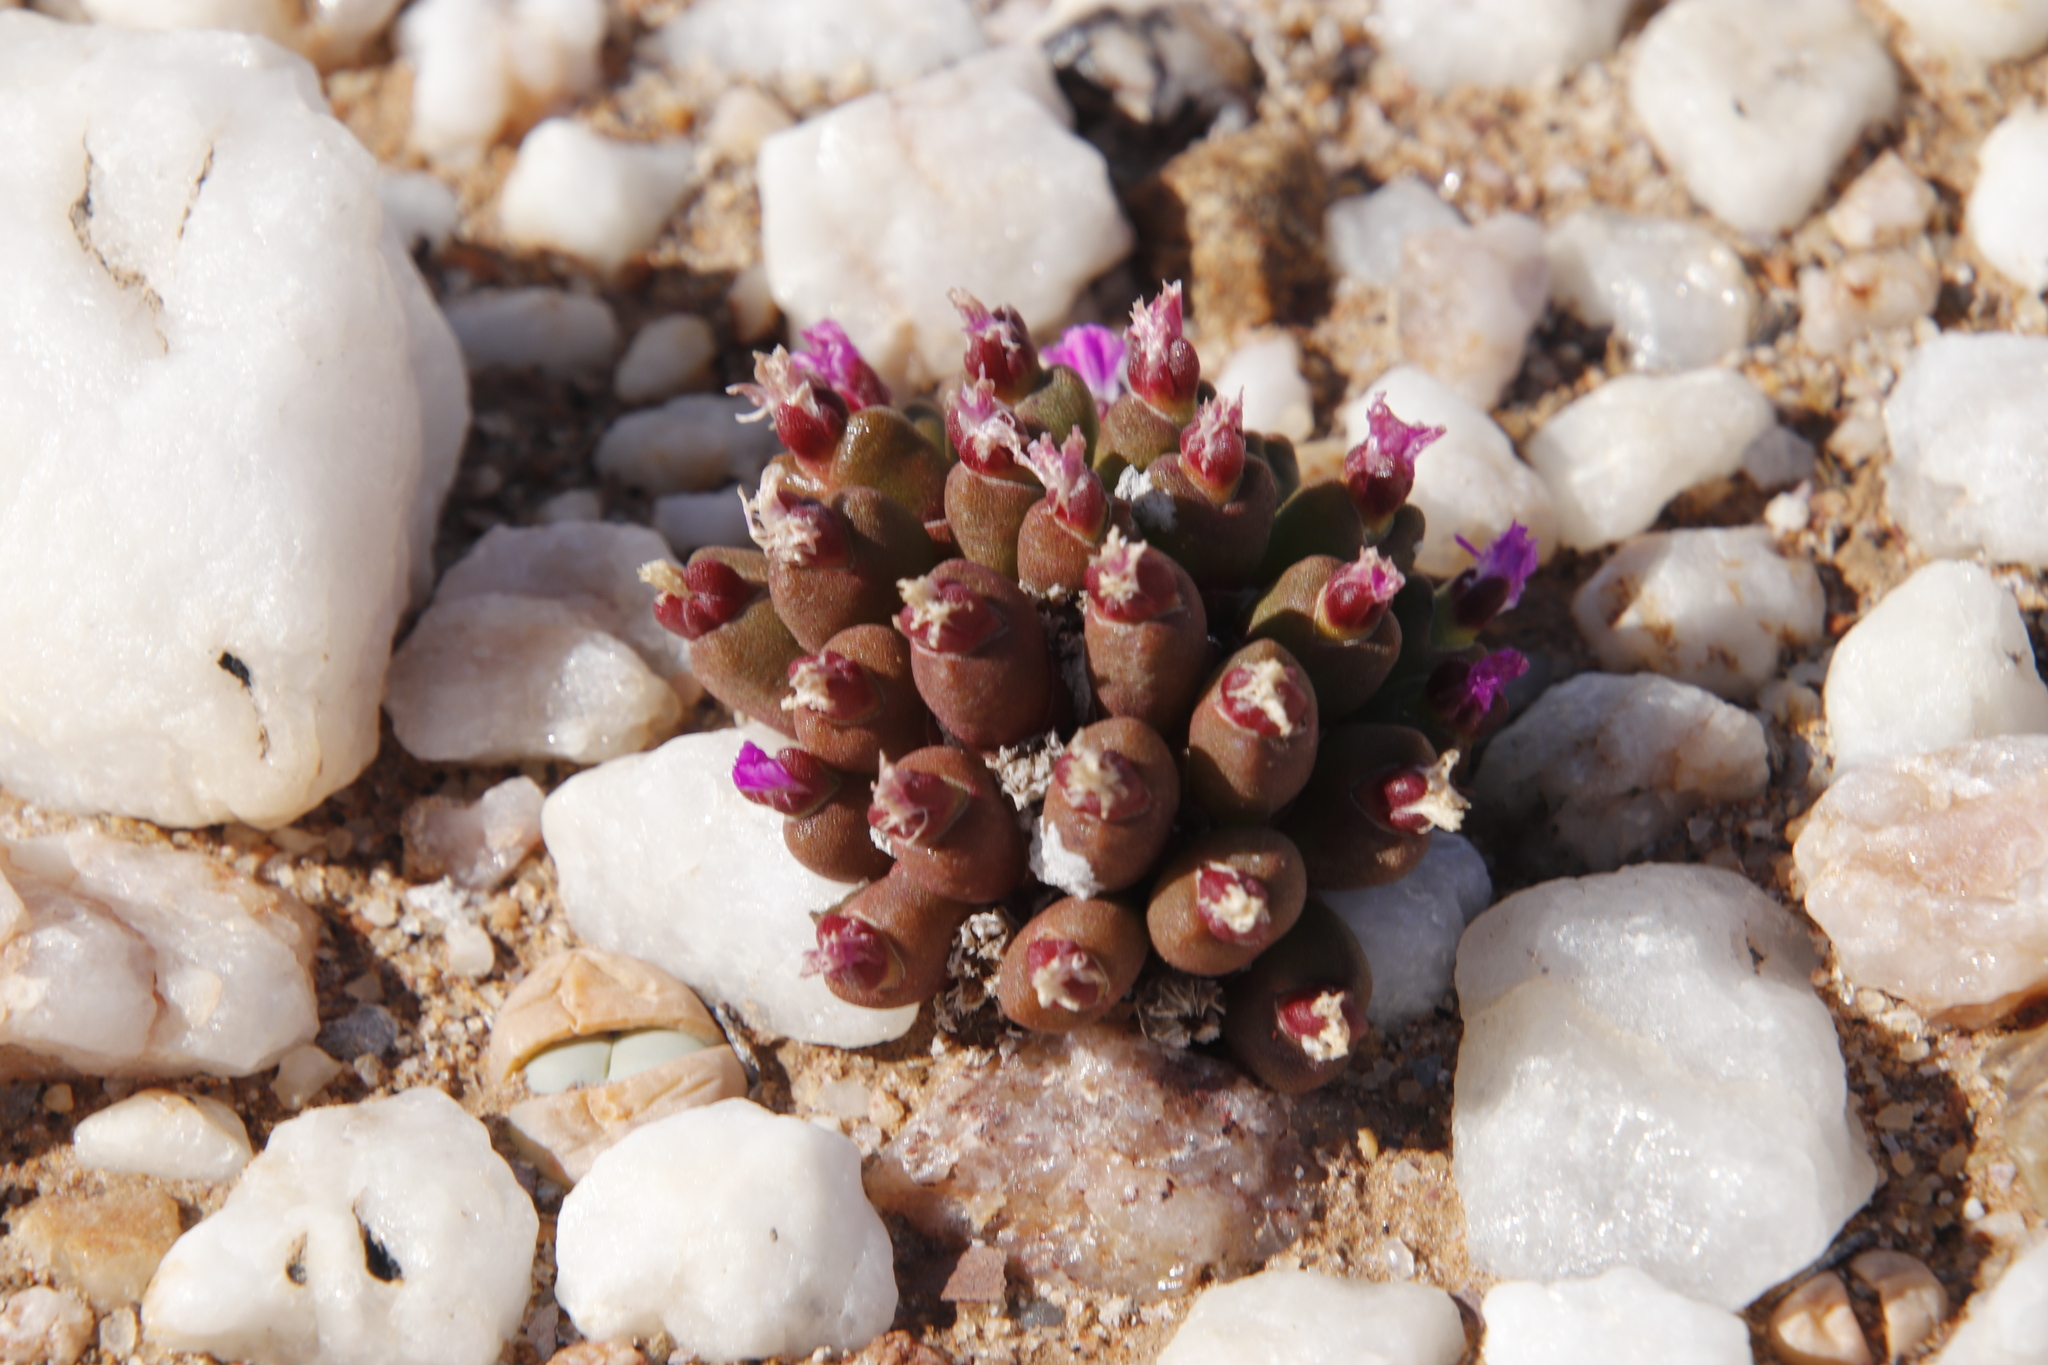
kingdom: Plantae
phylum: Tracheophyta
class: Magnoliopsida
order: Caryophyllales
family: Aizoaceae
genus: Oophytum
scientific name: Oophytum nanum
